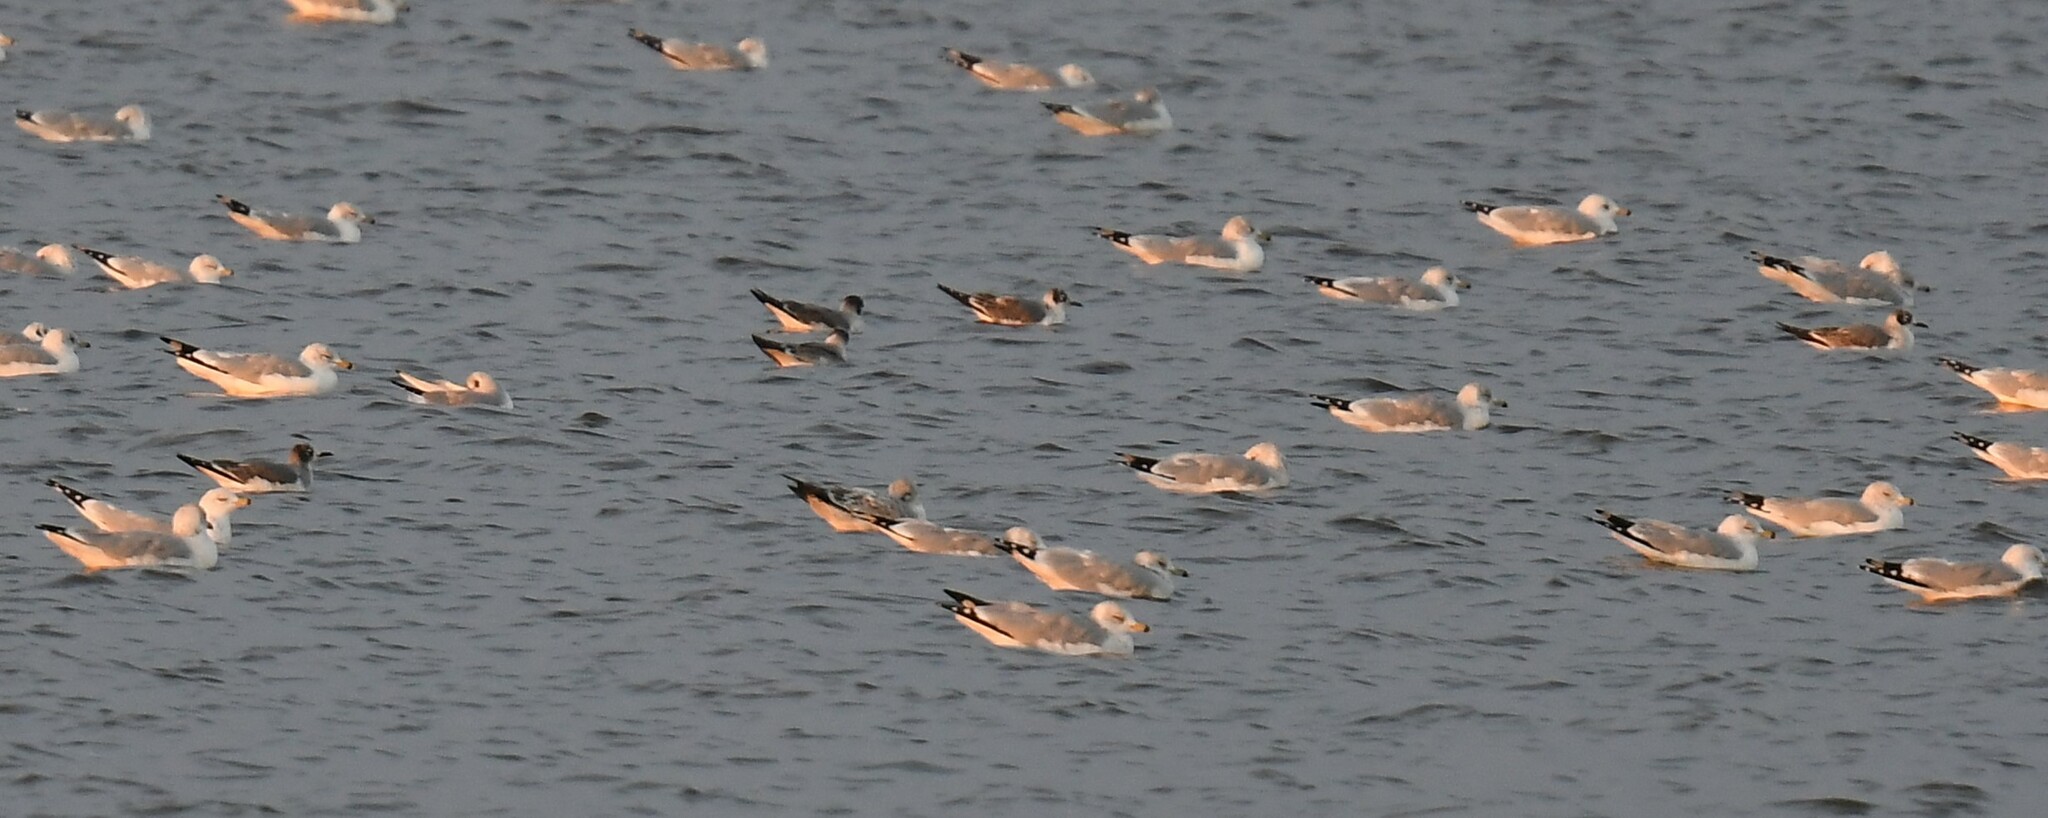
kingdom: Animalia
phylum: Chordata
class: Aves
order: Charadriiformes
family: Laridae
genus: Leucophaeus
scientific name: Leucophaeus pipixcan
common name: Franklin's gull
